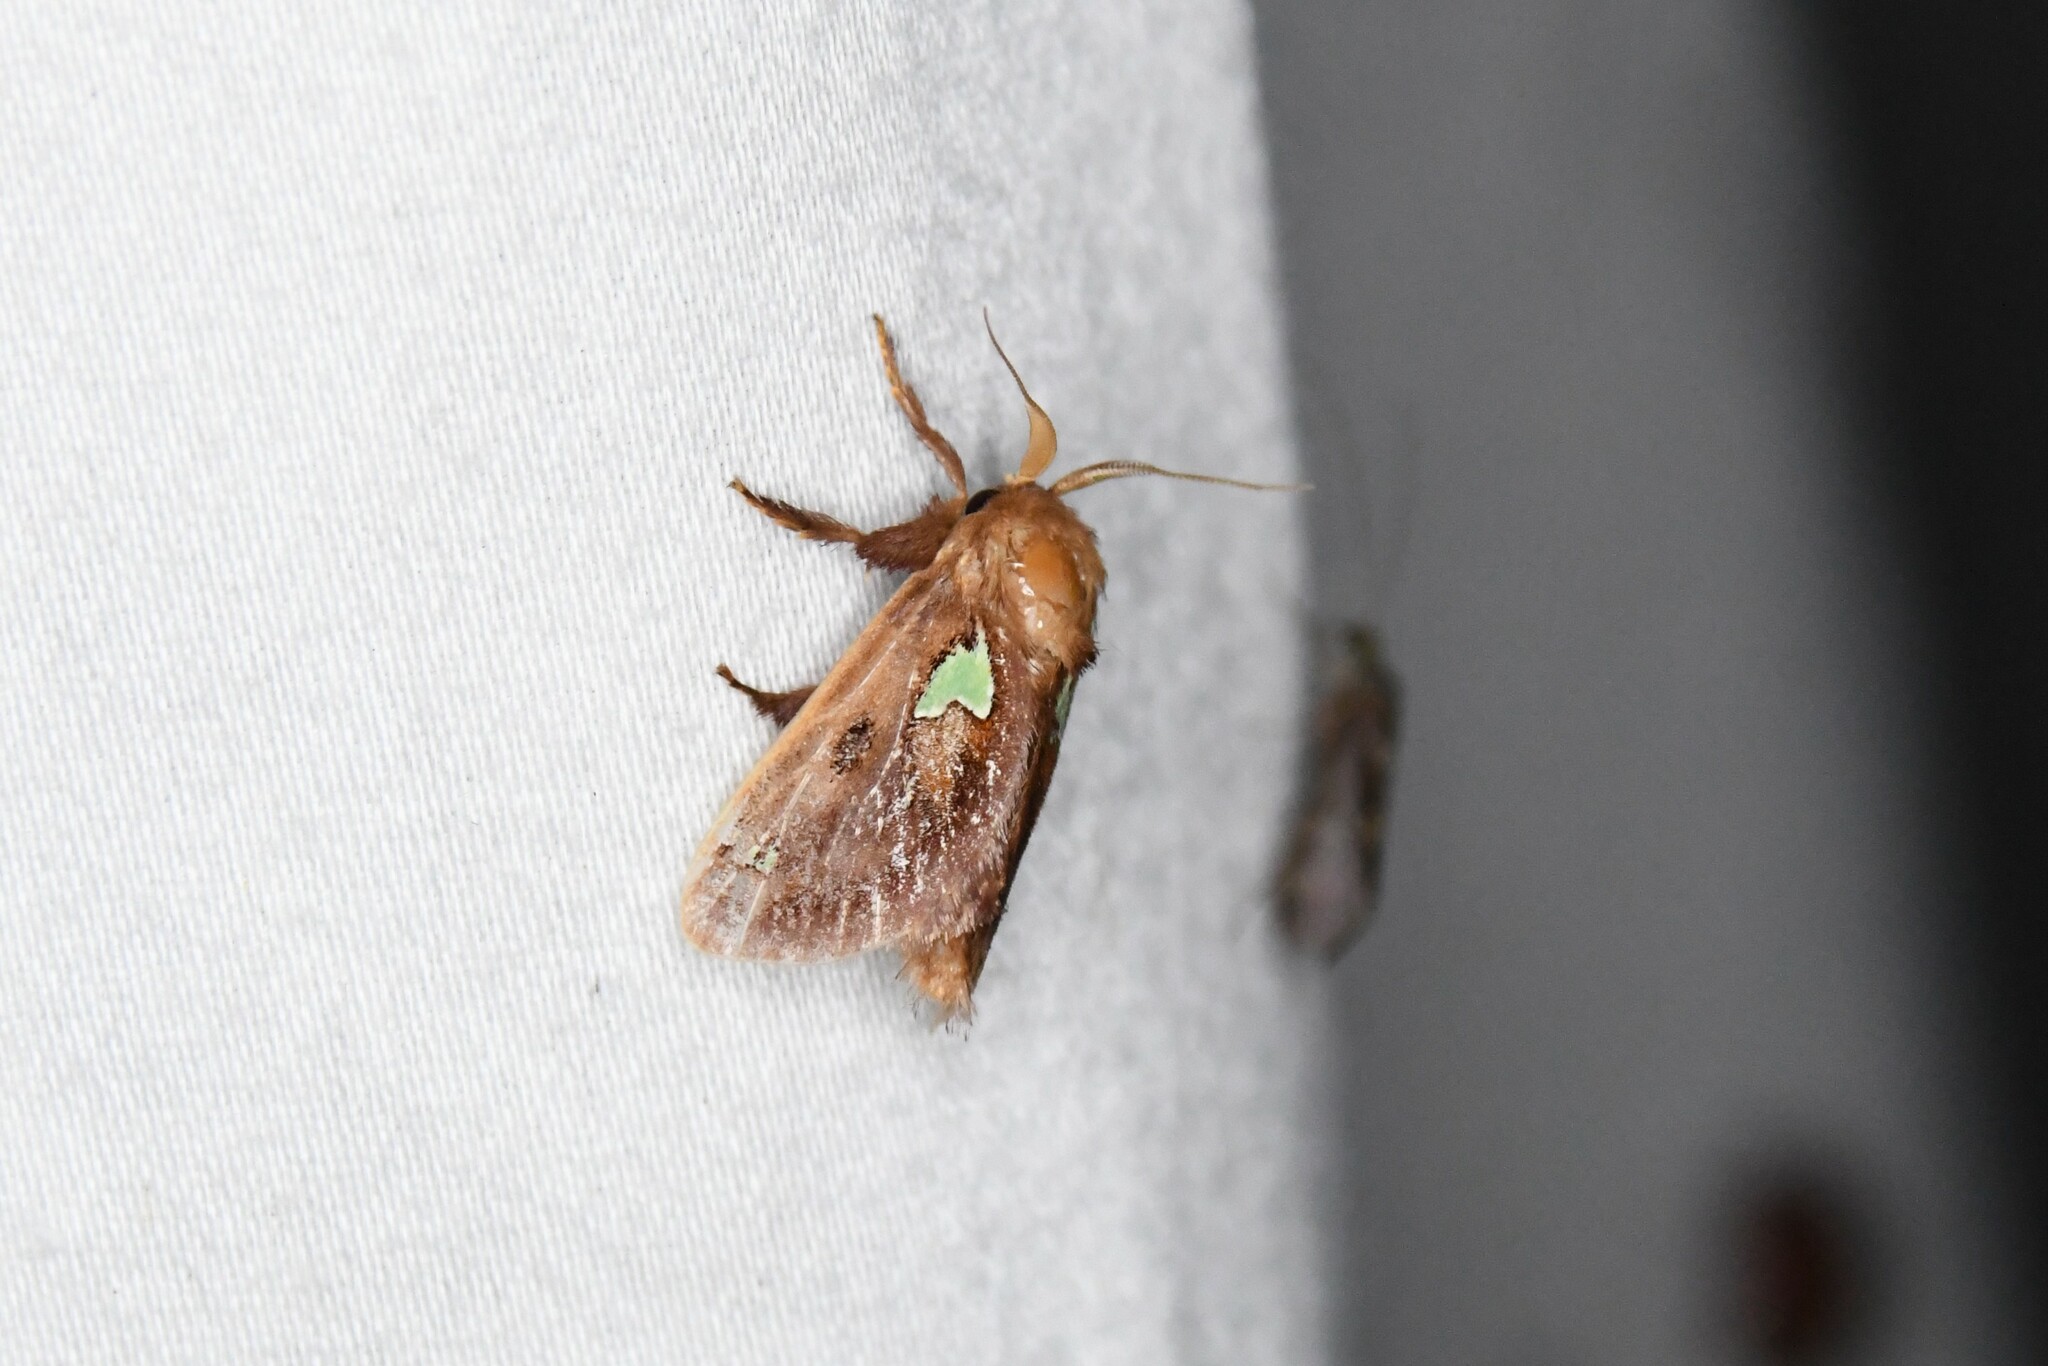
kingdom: Animalia
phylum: Arthropoda
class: Insecta
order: Lepidoptera
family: Limacodidae
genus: Euclea
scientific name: Euclea delphinii
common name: Spiny oak-slug moth
